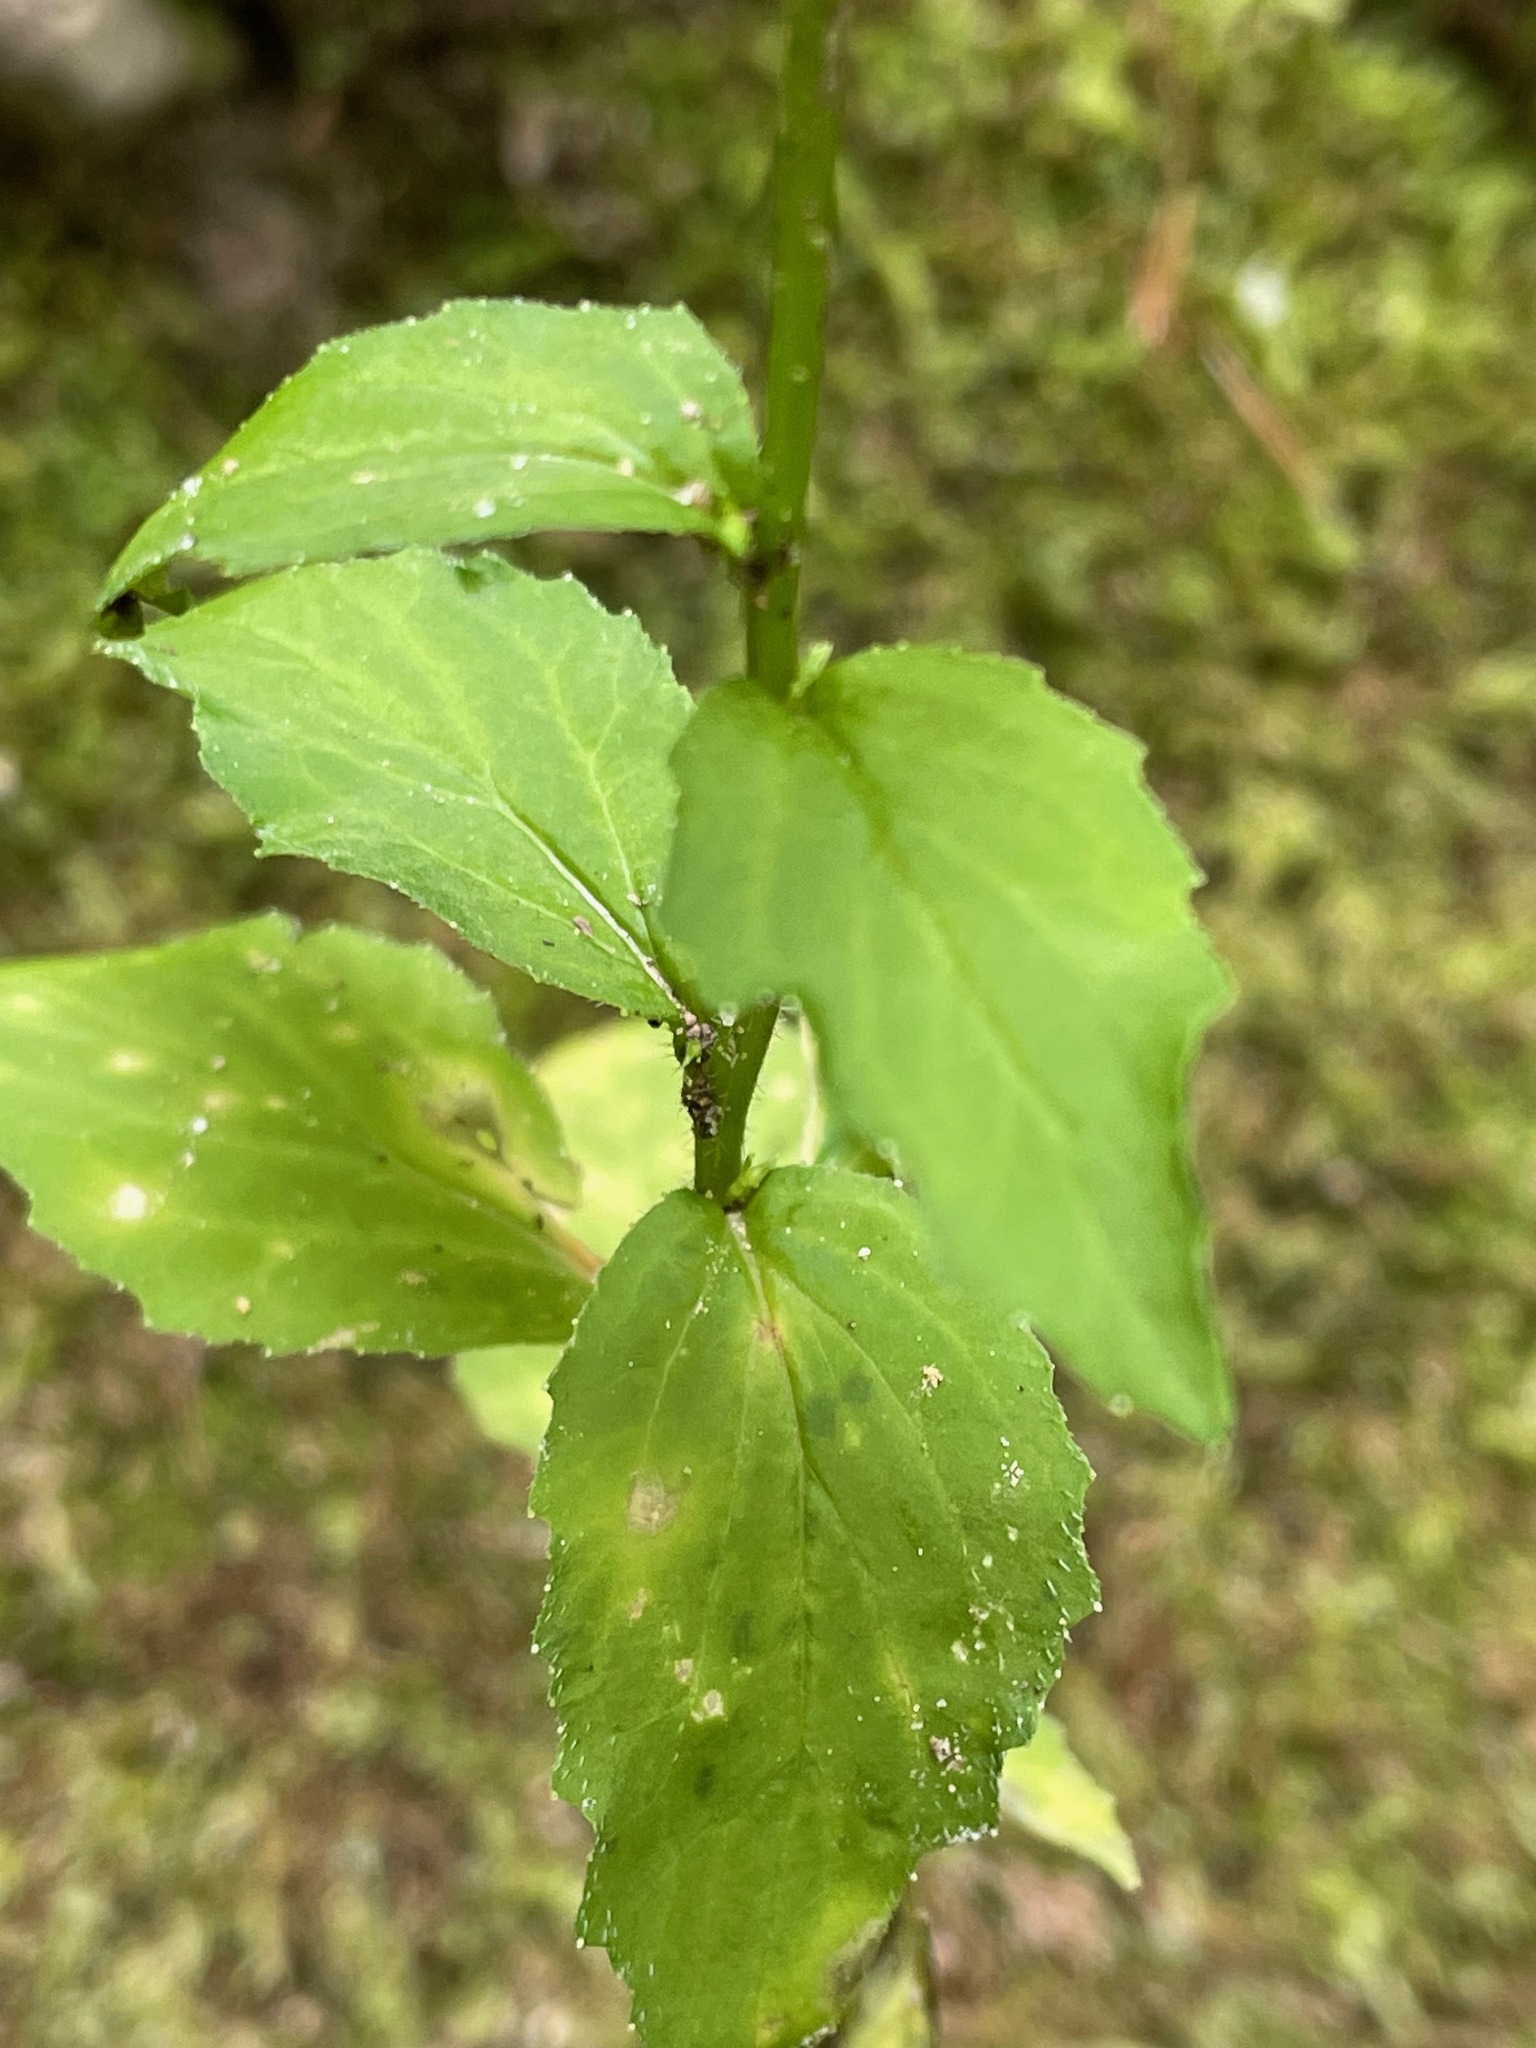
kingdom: Plantae
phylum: Tracheophyta
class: Magnoliopsida
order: Asterales
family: Campanulaceae
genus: Lobelia
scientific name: Lobelia inflata
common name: Indian tobacco
